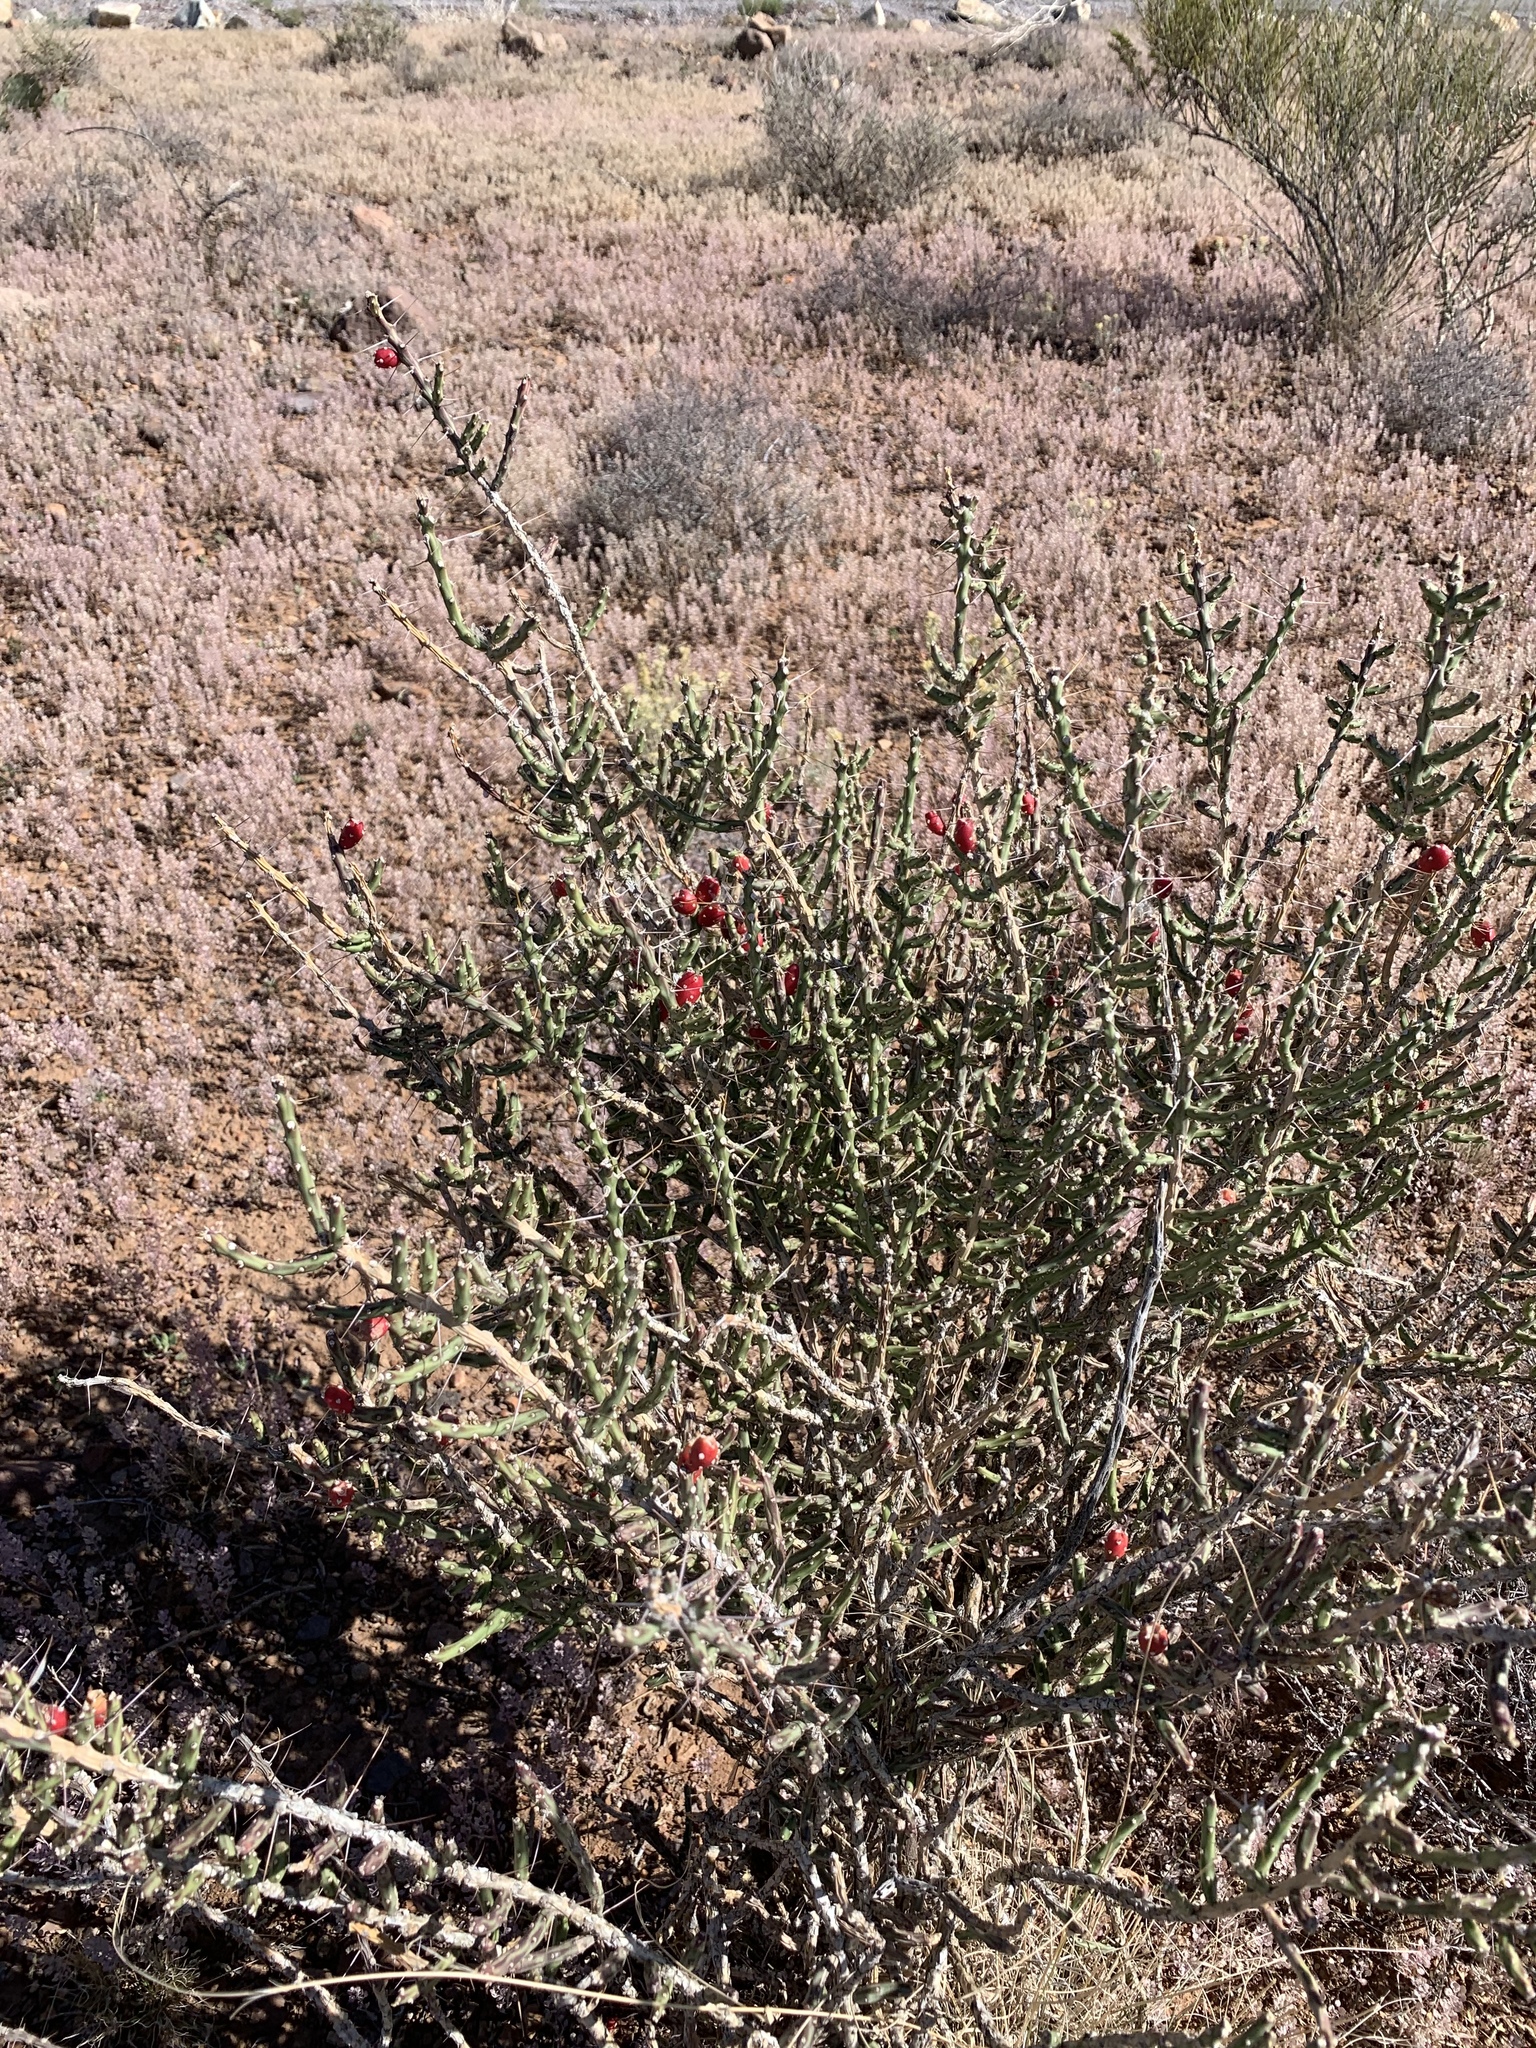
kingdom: Plantae
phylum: Tracheophyta
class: Magnoliopsida
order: Caryophyllales
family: Cactaceae
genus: Cylindropuntia
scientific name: Cylindropuntia leptocaulis
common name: Christmas cactus
